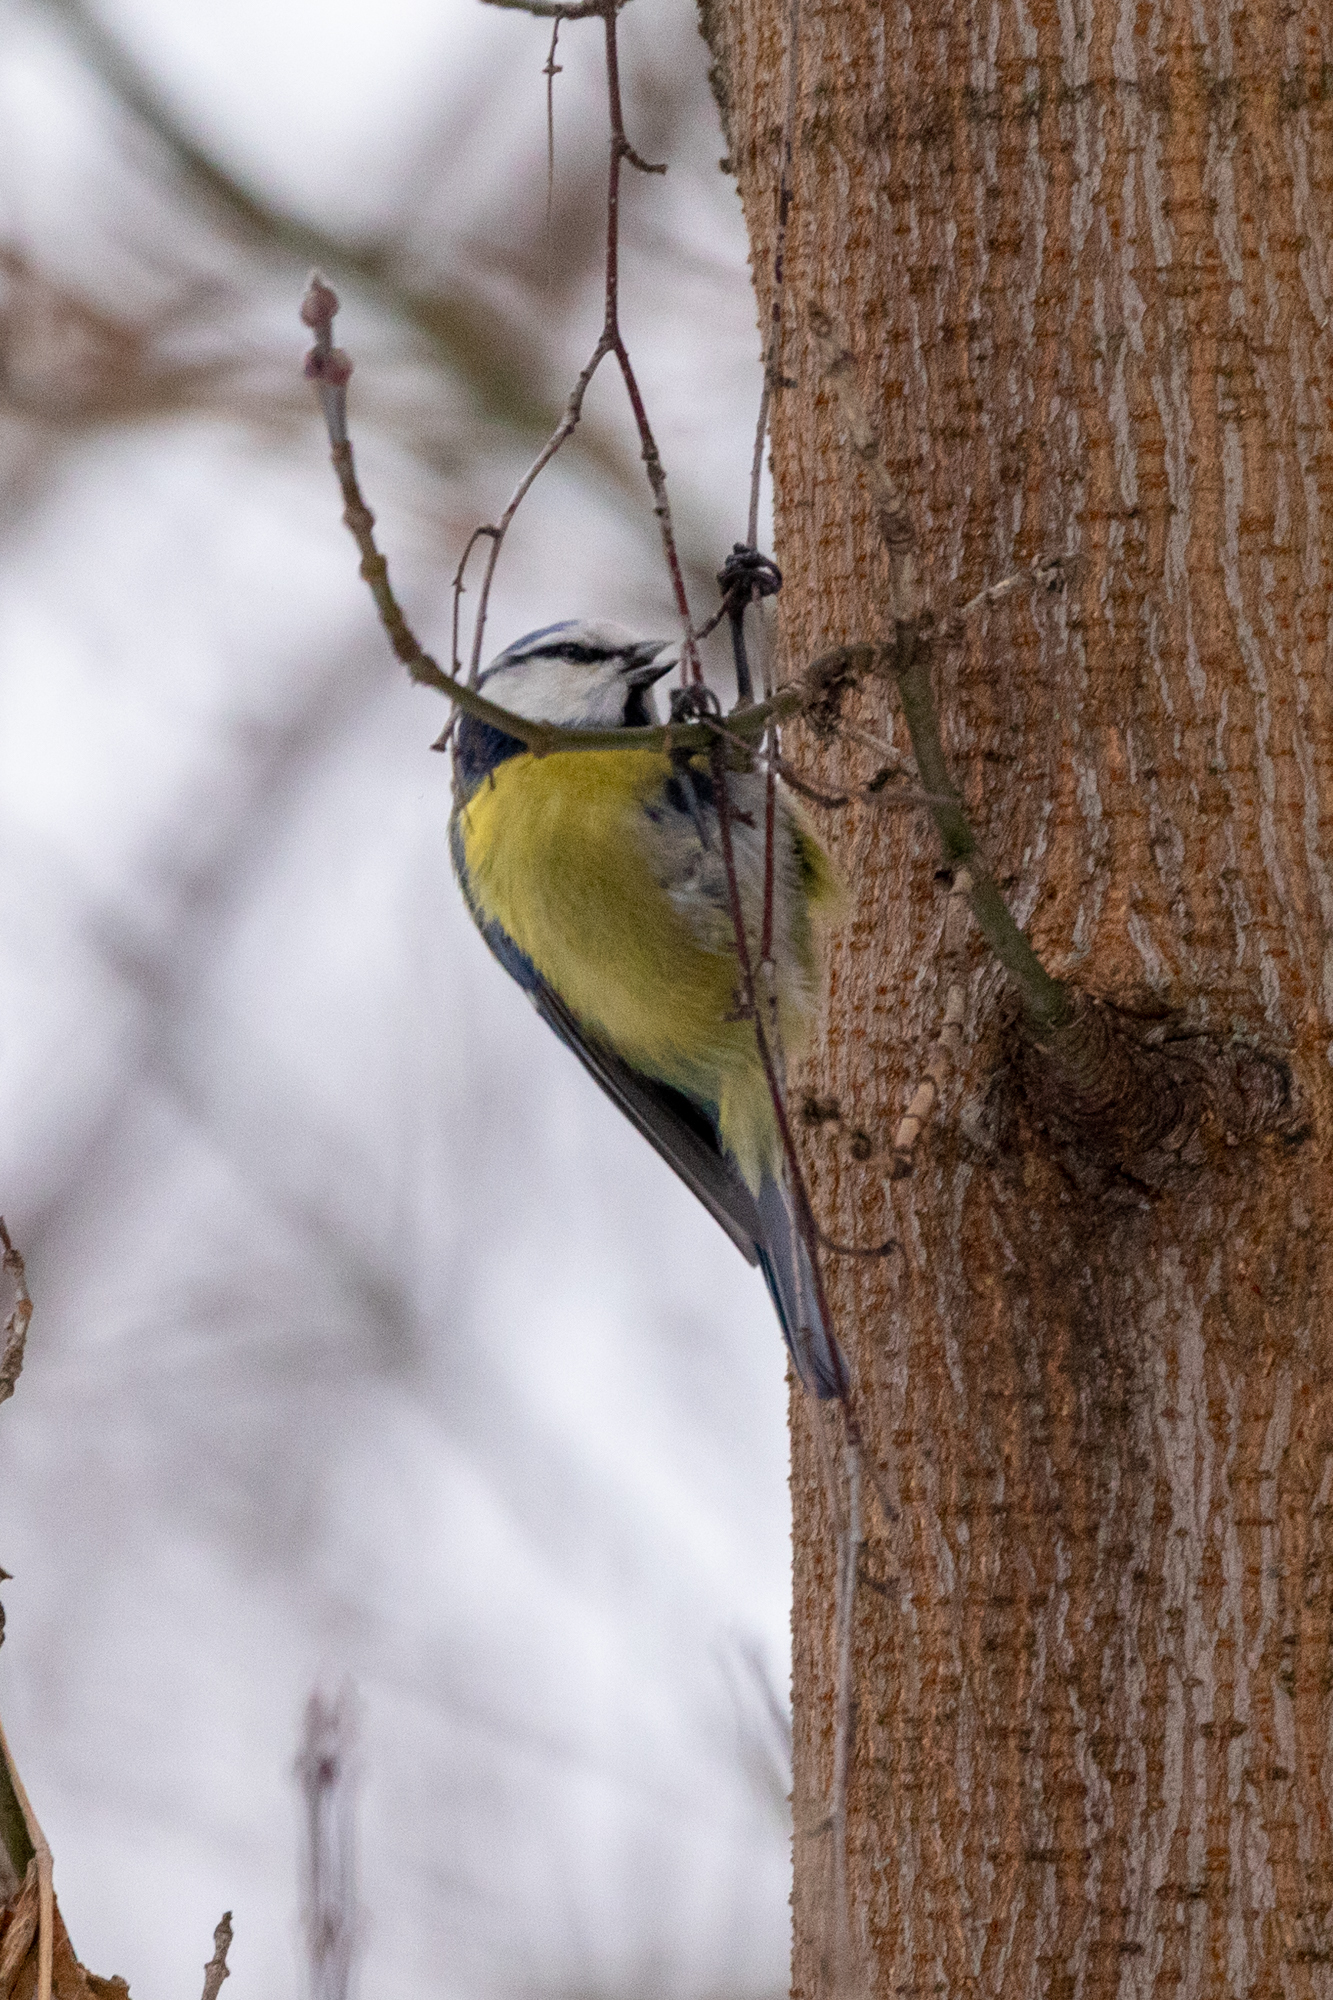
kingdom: Animalia
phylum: Chordata
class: Aves
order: Passeriformes
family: Paridae
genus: Cyanistes
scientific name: Cyanistes caeruleus
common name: Eurasian blue tit
